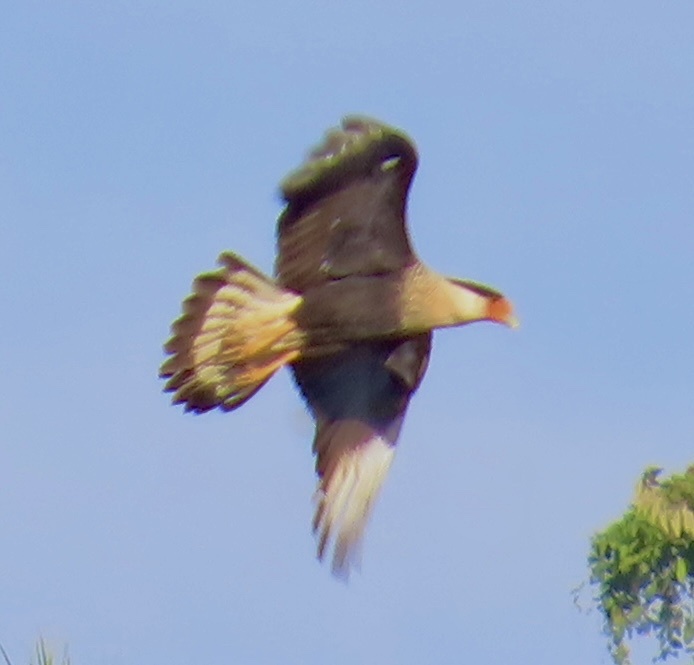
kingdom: Animalia
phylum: Chordata
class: Aves
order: Falconiformes
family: Falconidae
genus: Caracara
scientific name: Caracara plancus
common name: Southern caracara
